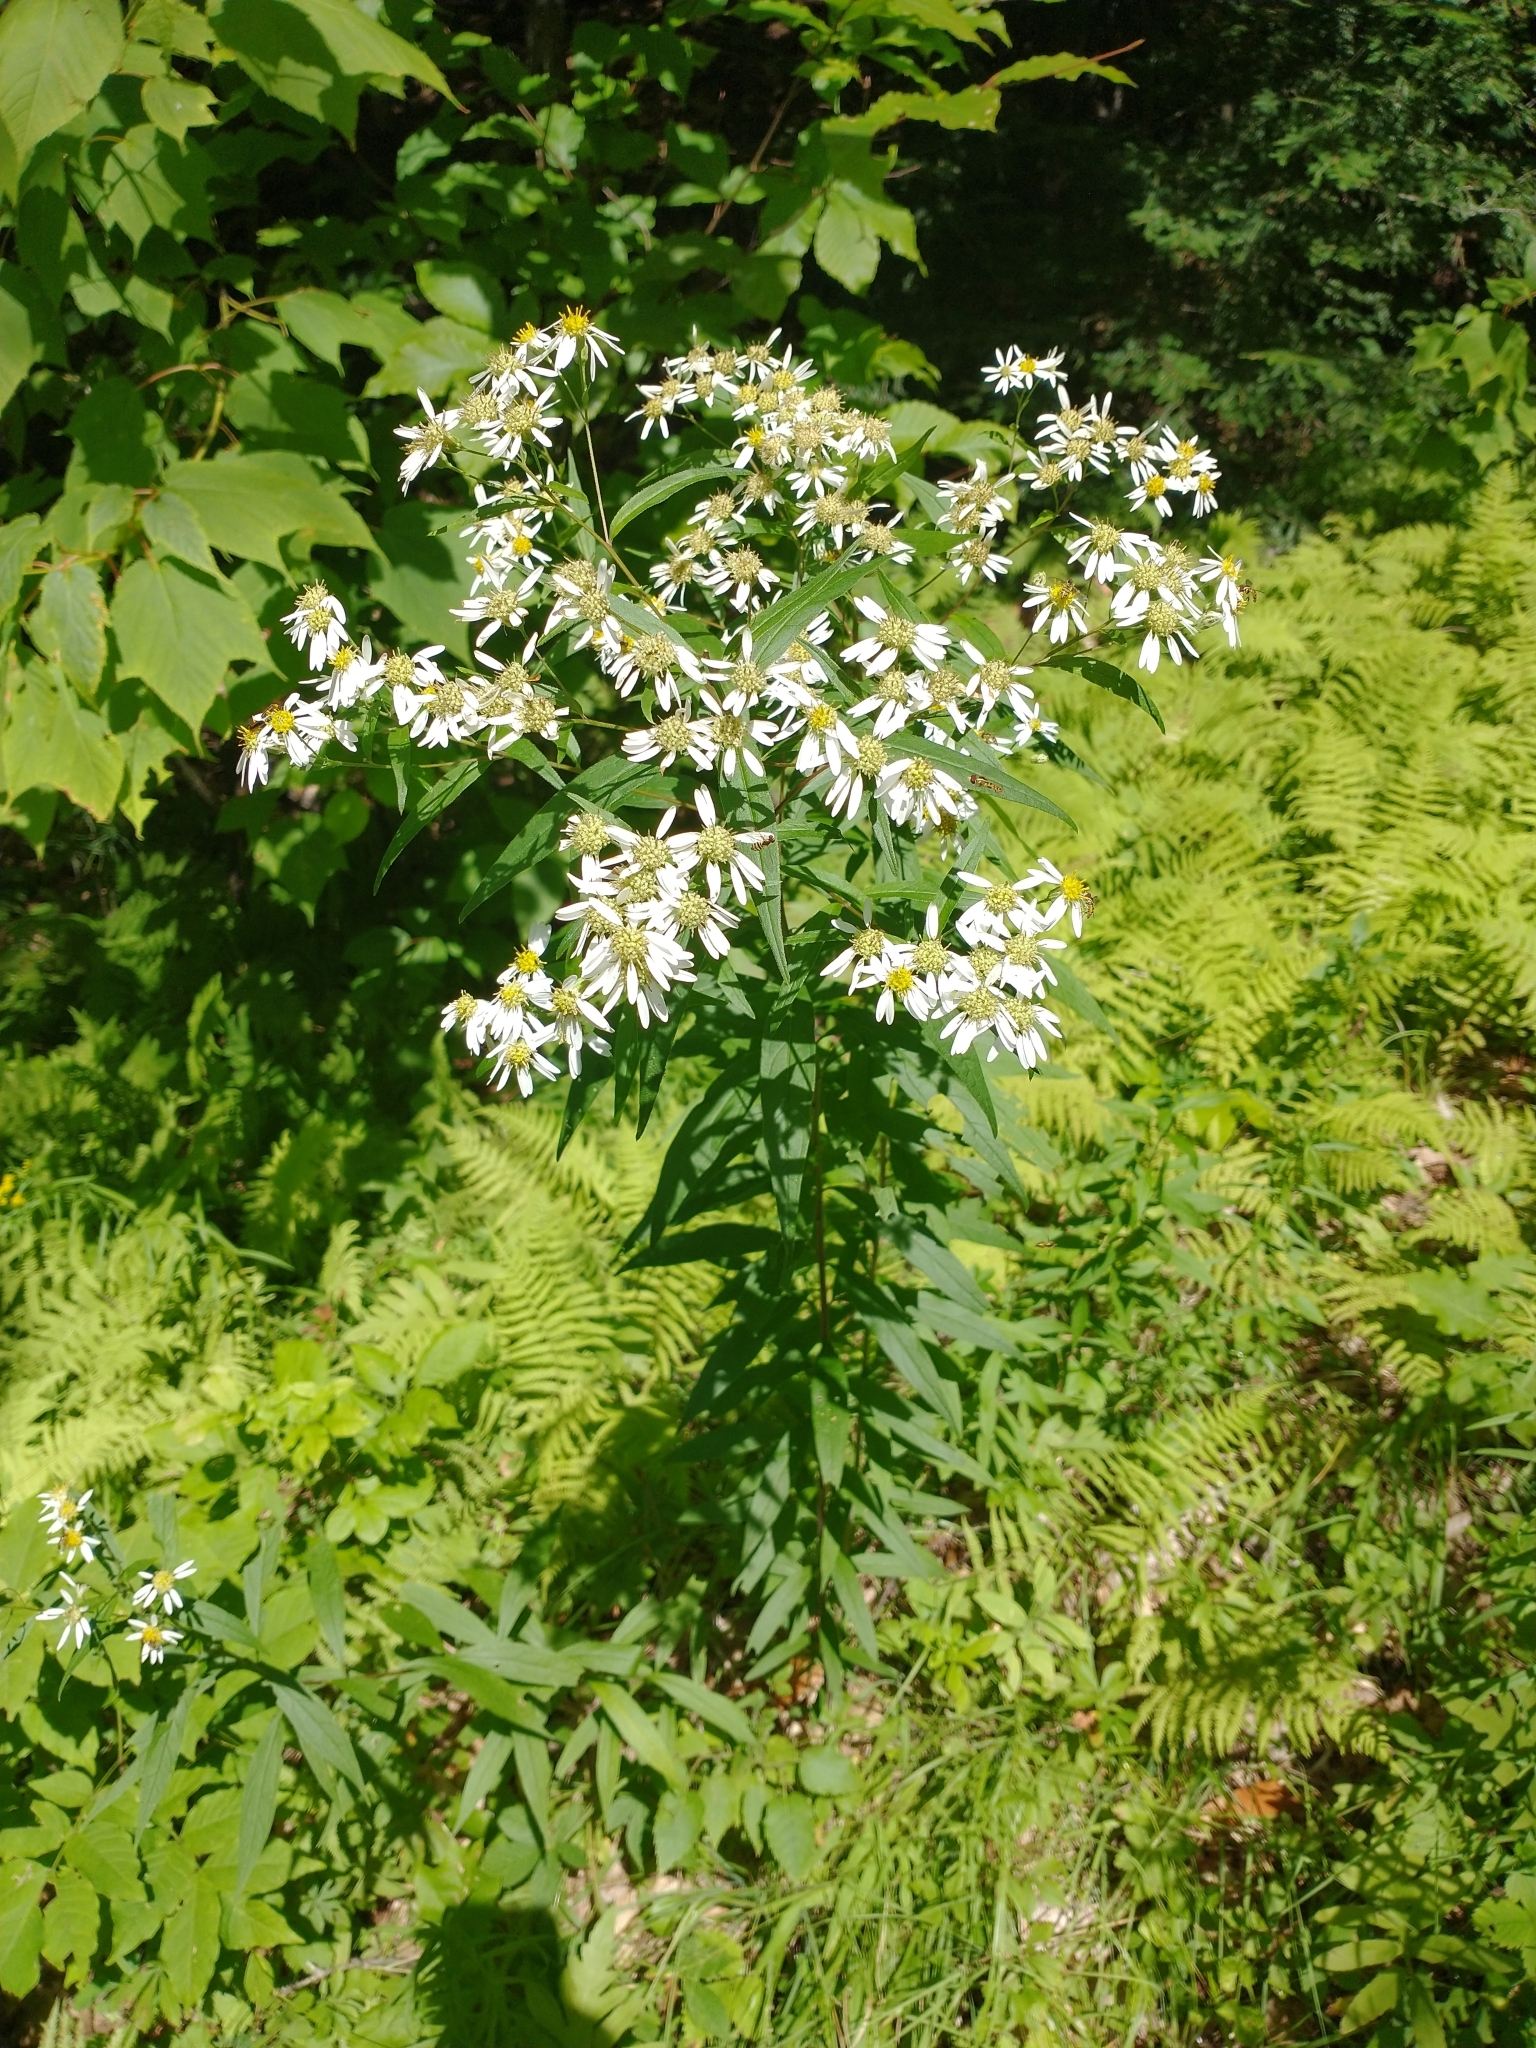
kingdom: Plantae
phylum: Tracheophyta
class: Magnoliopsida
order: Asterales
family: Asteraceae
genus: Doellingeria
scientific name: Doellingeria umbellata
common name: Flat-top white aster
